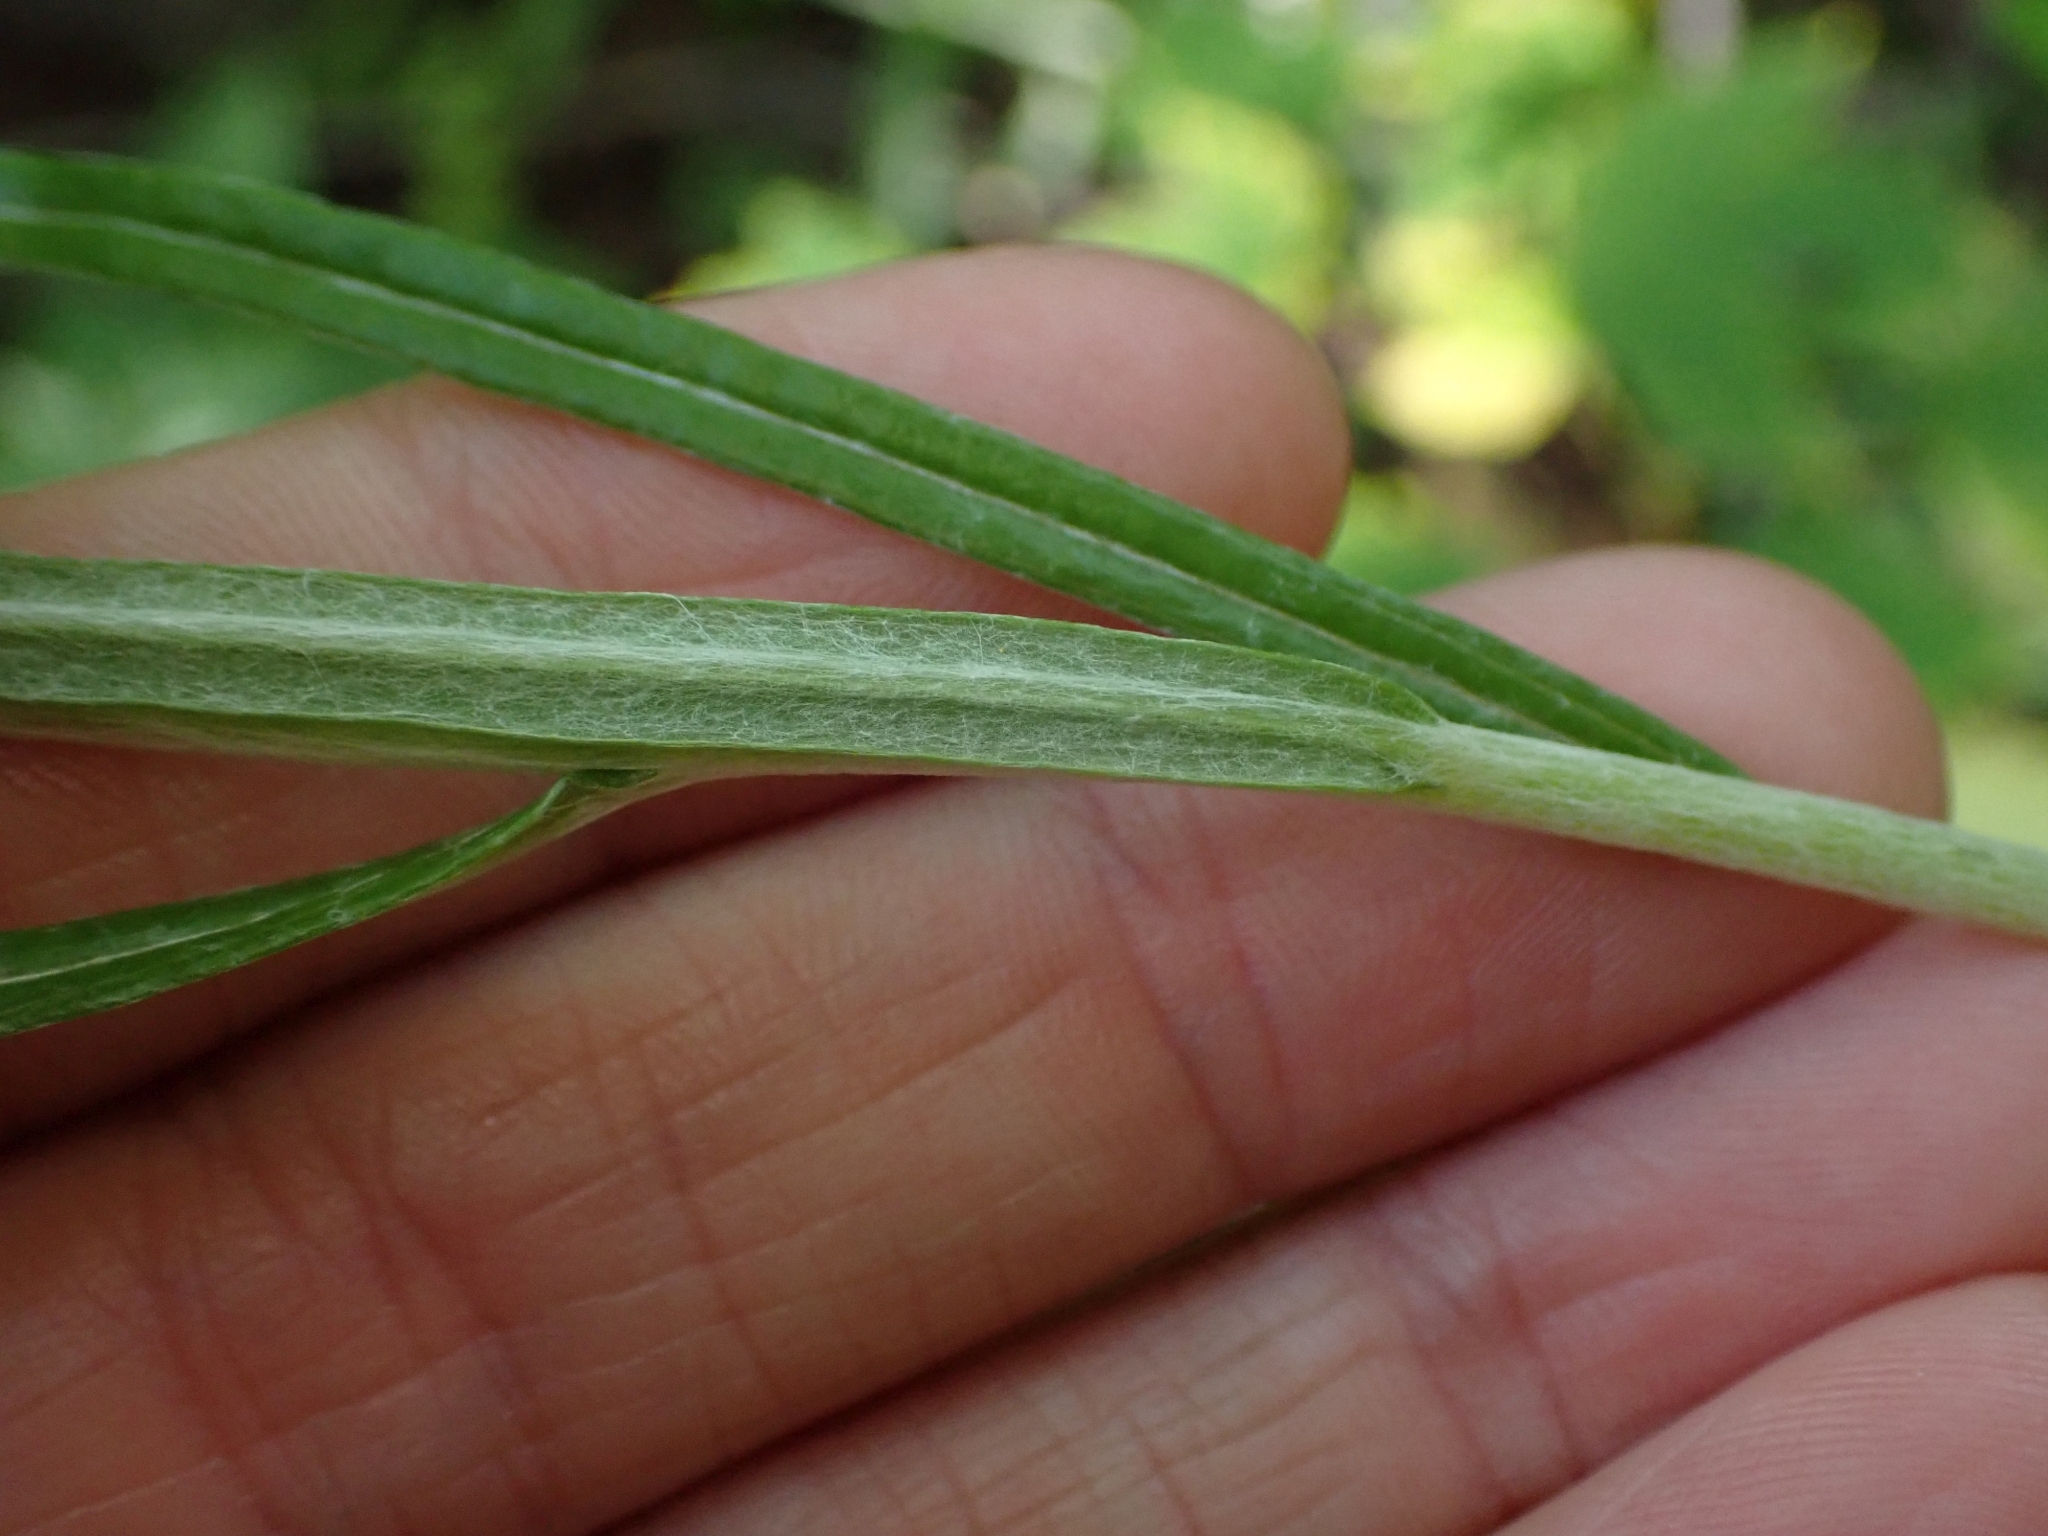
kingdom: Plantae
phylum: Tracheophyta
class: Magnoliopsida
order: Asterales
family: Asteraceae
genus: Anaphalis
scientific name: Anaphalis margaritacea
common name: Pearly everlasting
